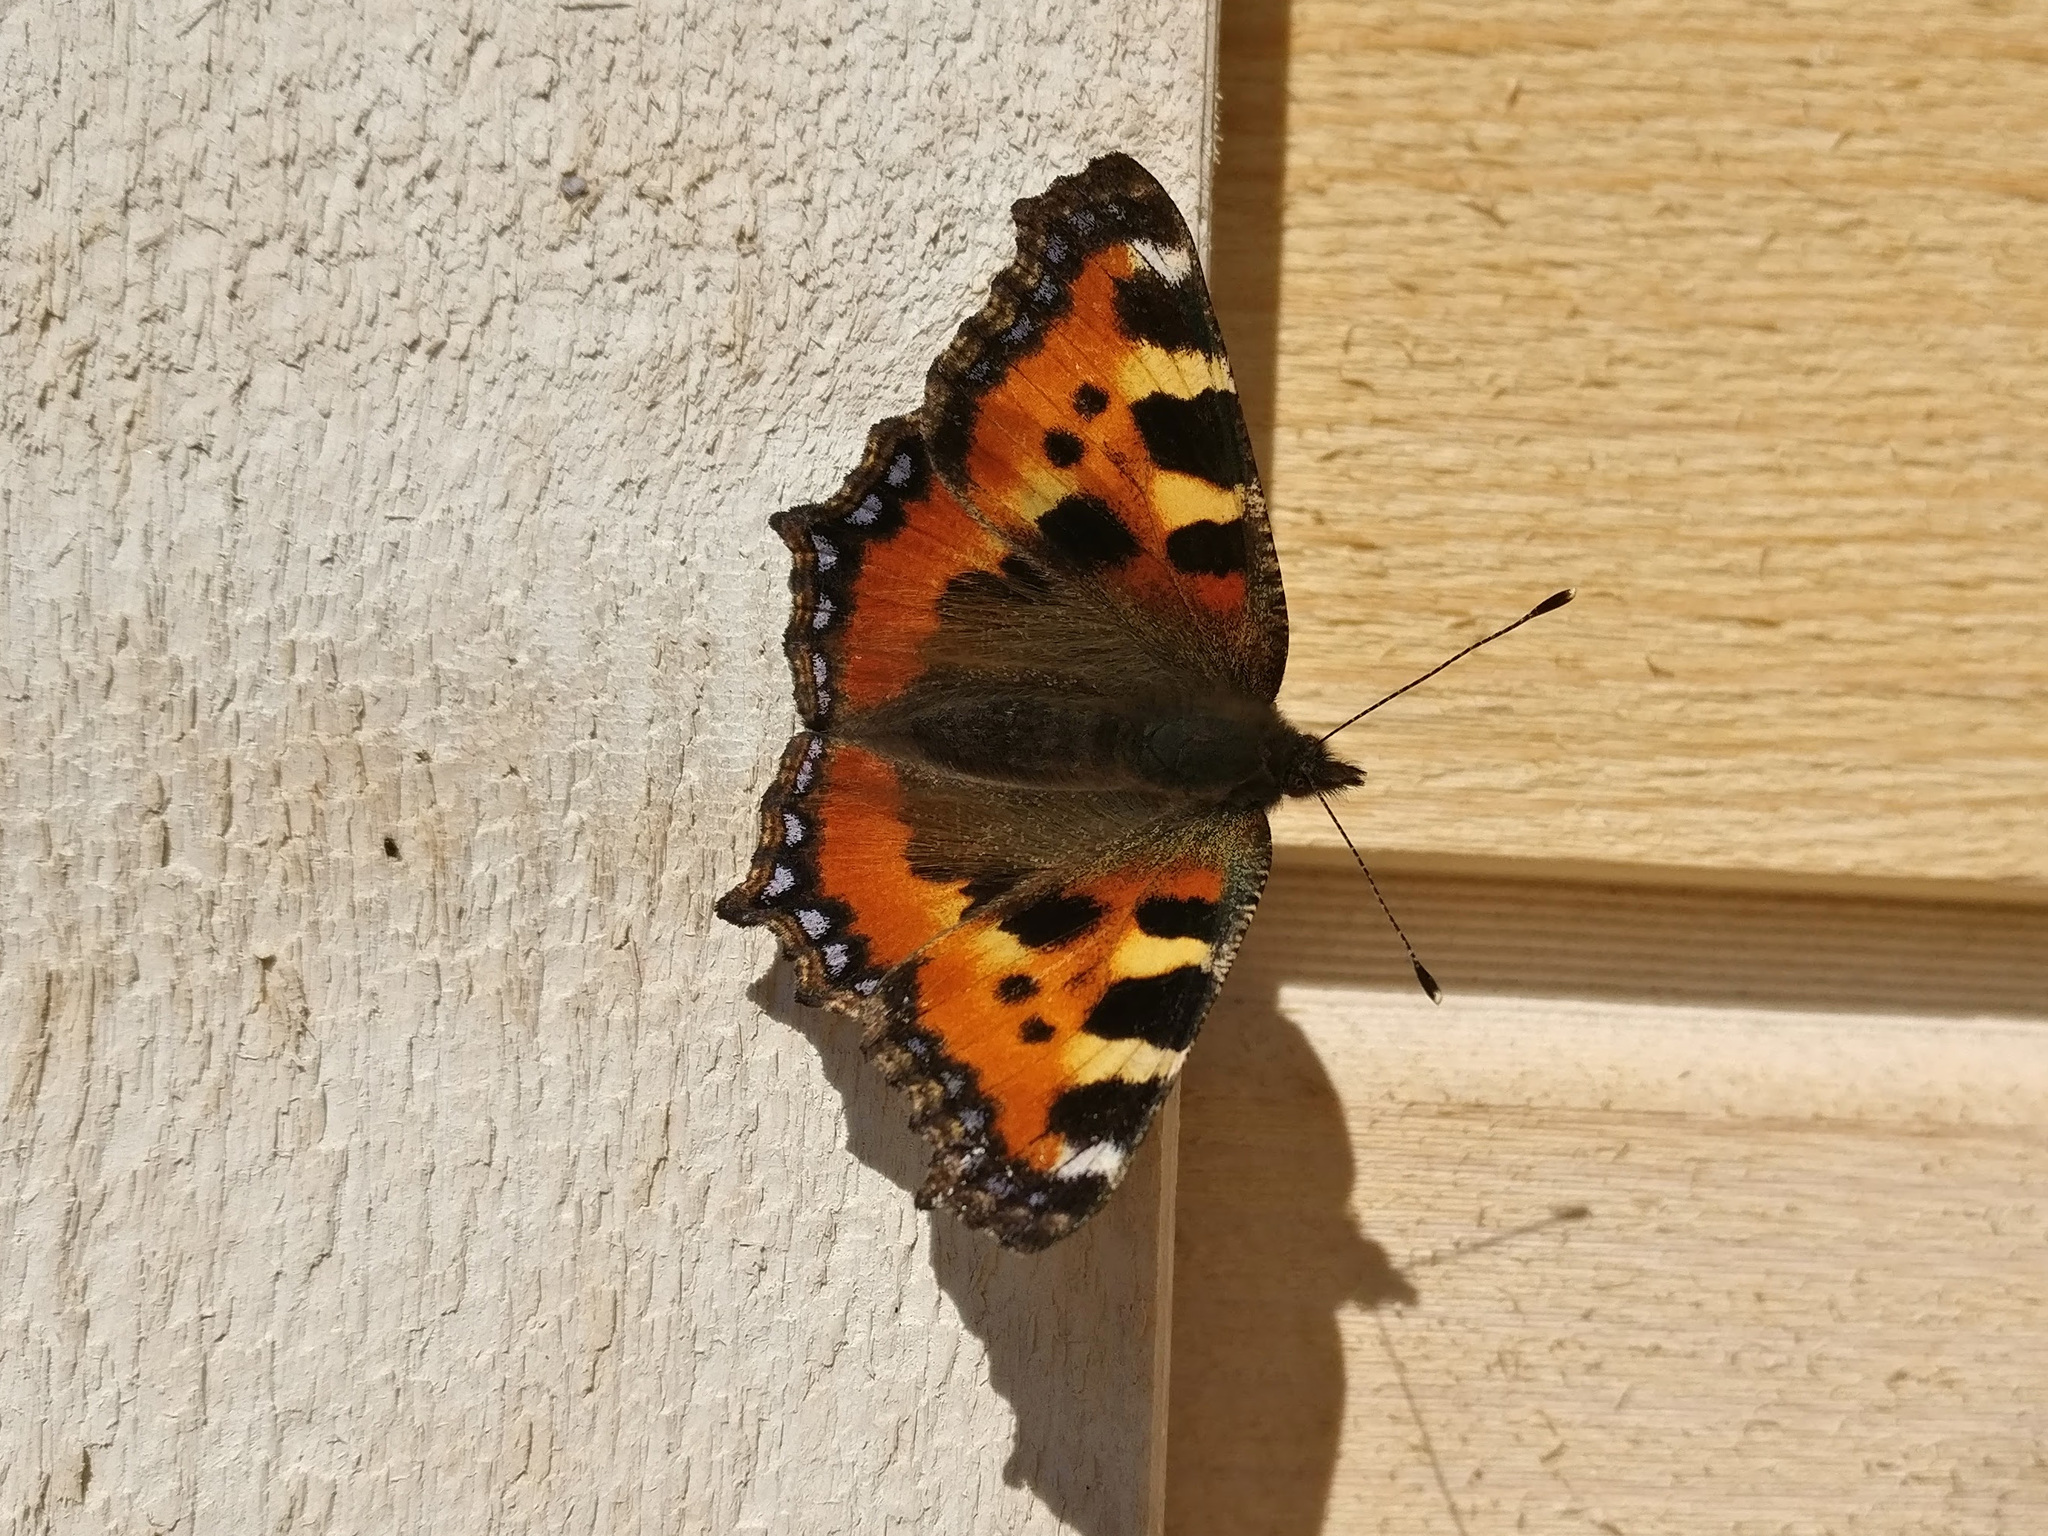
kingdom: Animalia
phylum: Arthropoda
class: Insecta
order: Lepidoptera
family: Nymphalidae
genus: Aglais
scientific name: Aglais urticae
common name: Small tortoiseshell
